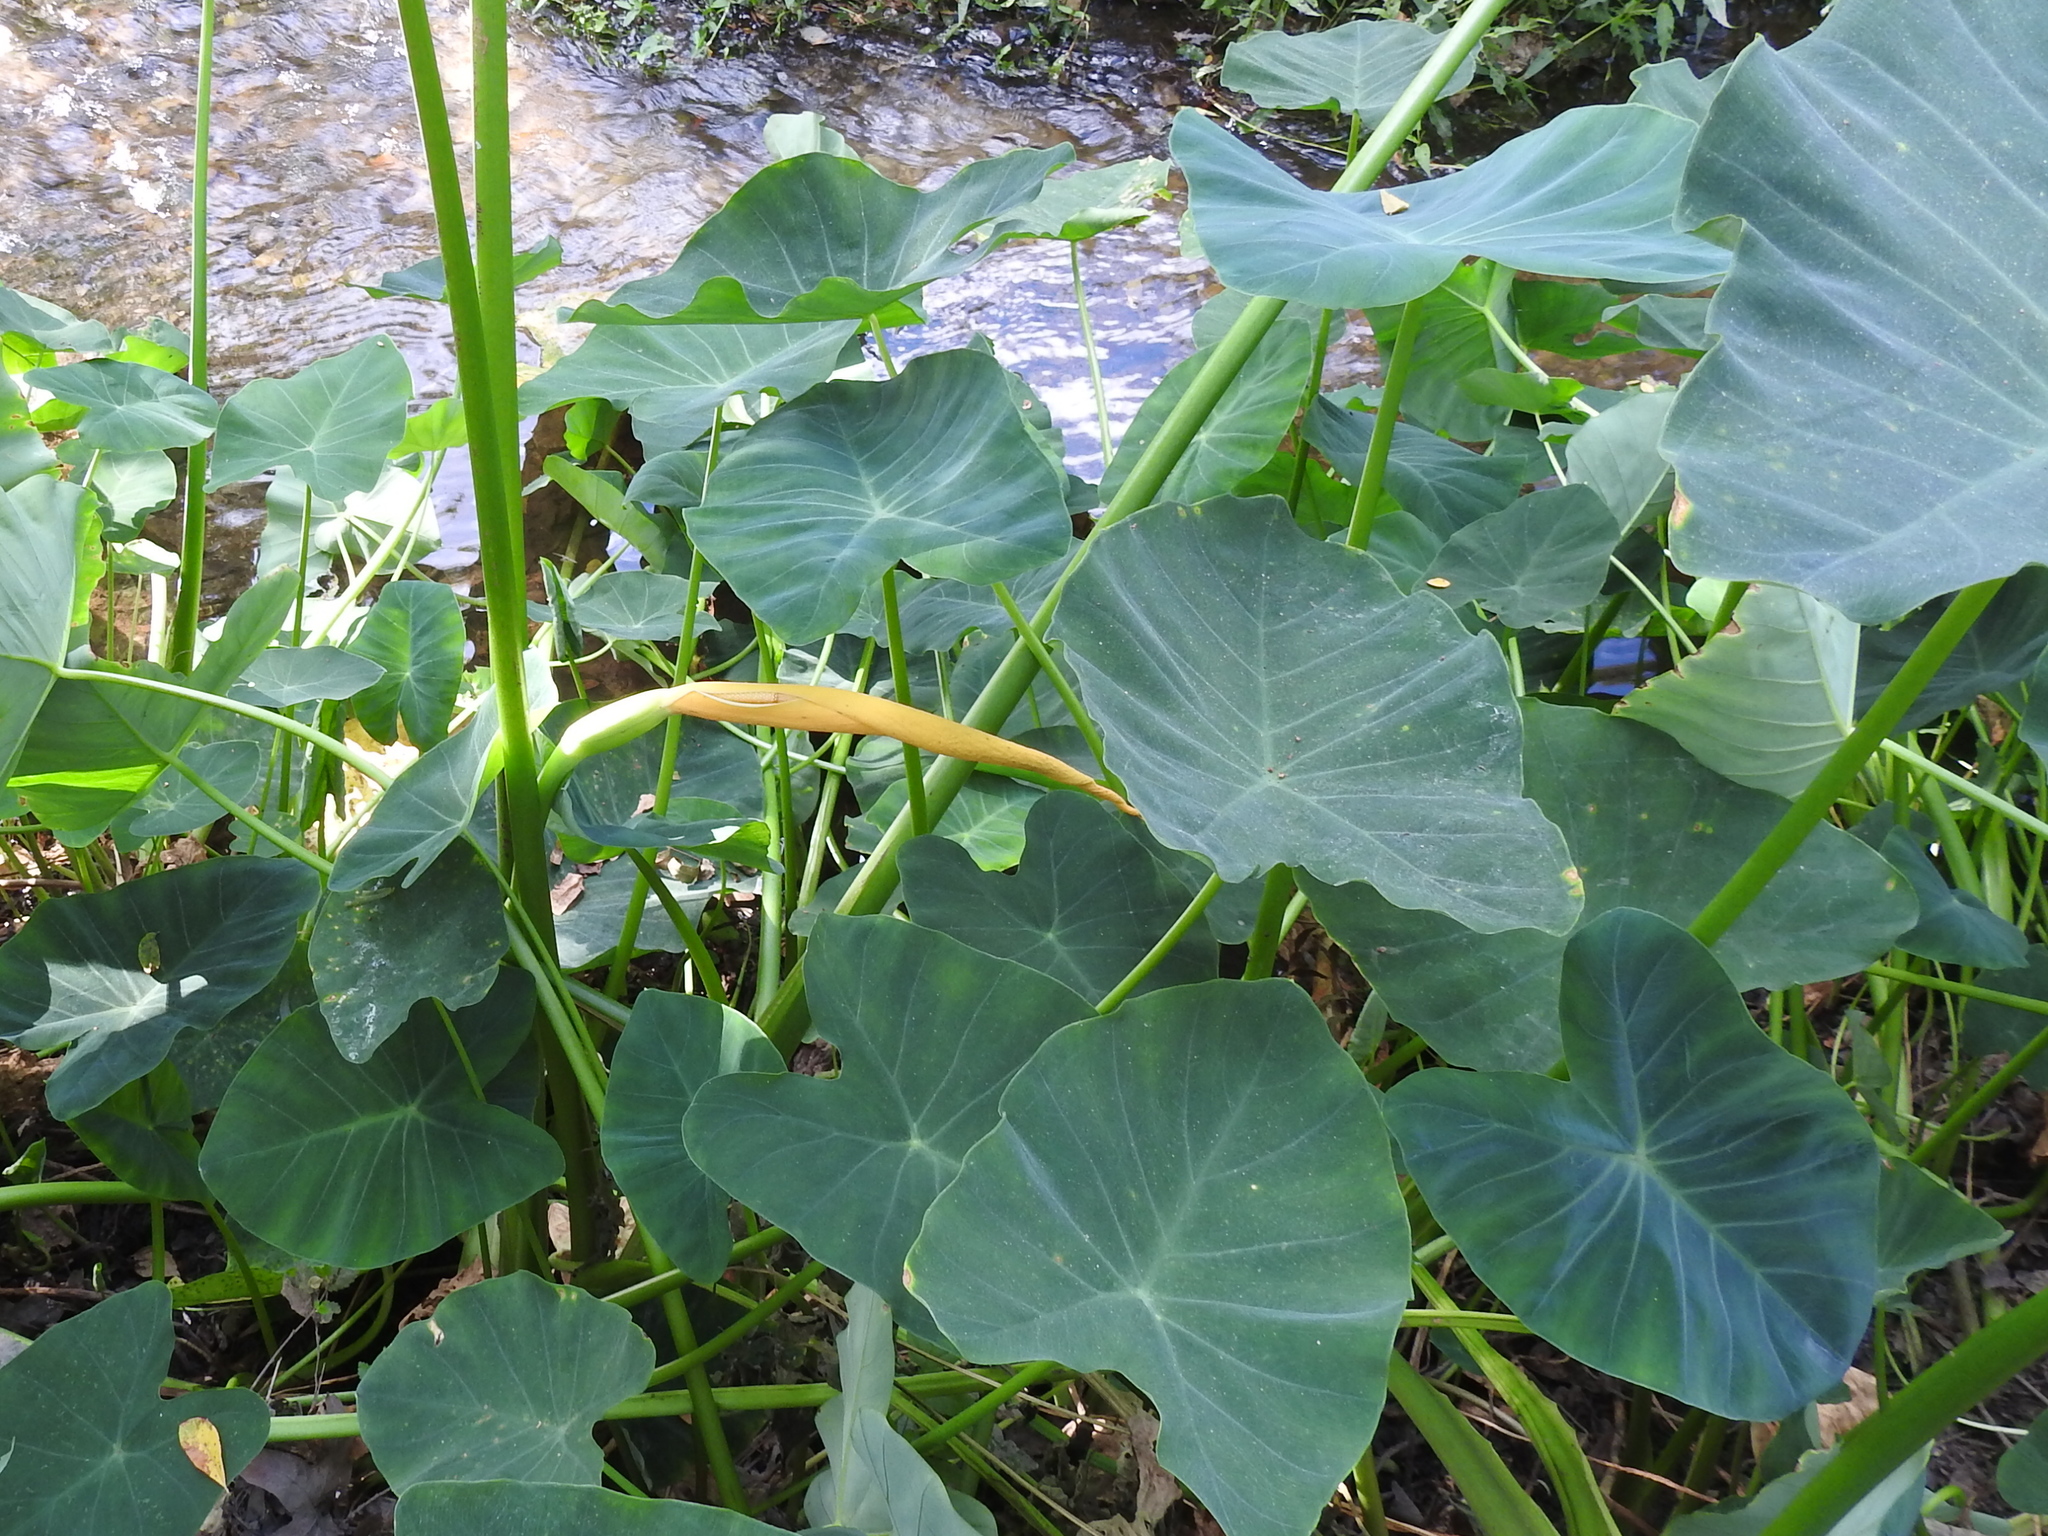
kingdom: Plantae
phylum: Tracheophyta
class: Liliopsida
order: Alismatales
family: Araceae
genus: Colocasia
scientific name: Colocasia esculenta
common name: Taro
